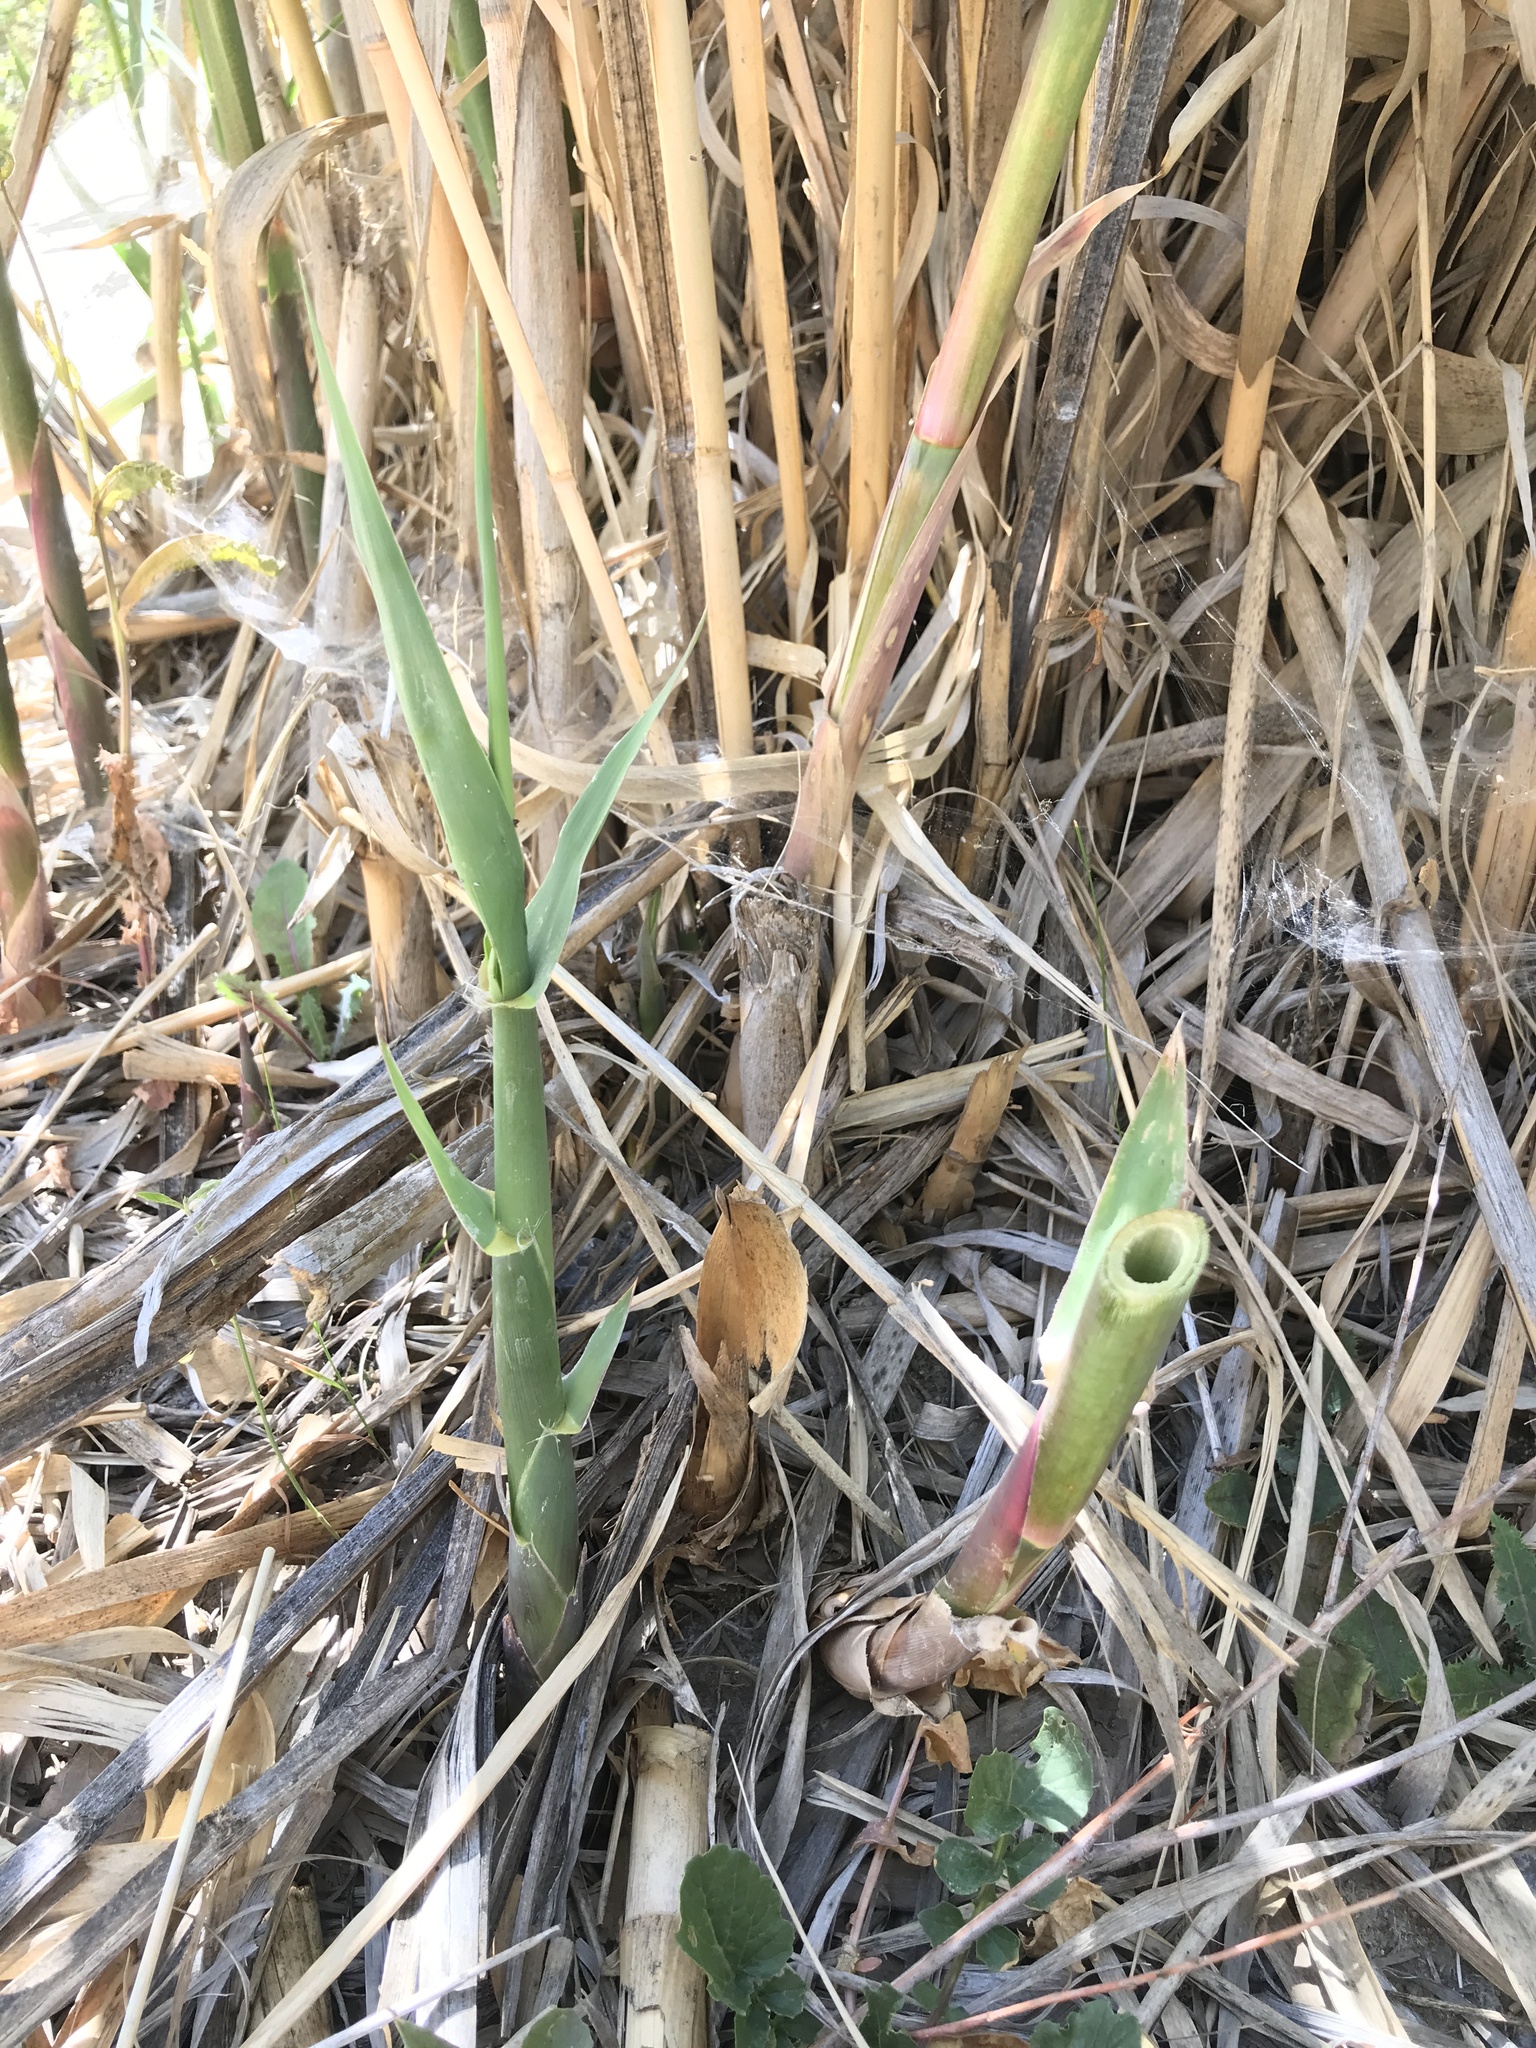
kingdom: Plantae
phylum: Tracheophyta
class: Liliopsida
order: Poales
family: Poaceae
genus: Arundo
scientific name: Arundo donax
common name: Giant reed
